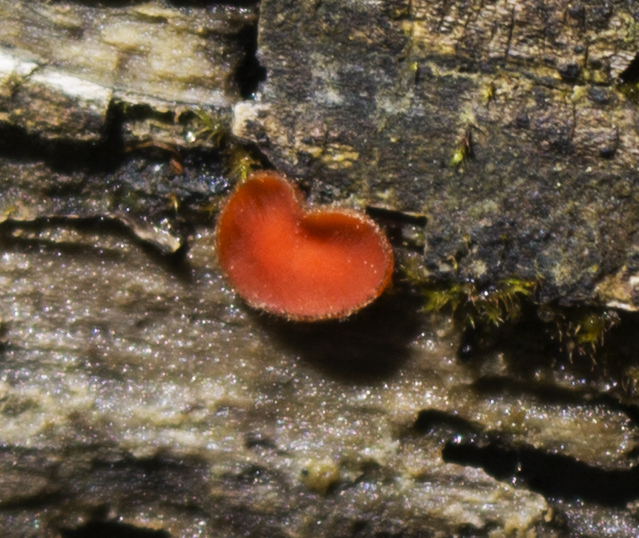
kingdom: Fungi
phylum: Ascomycota
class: Pezizomycetes
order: Pezizales
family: Pyronemataceae
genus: Scutellinia
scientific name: Scutellinia
